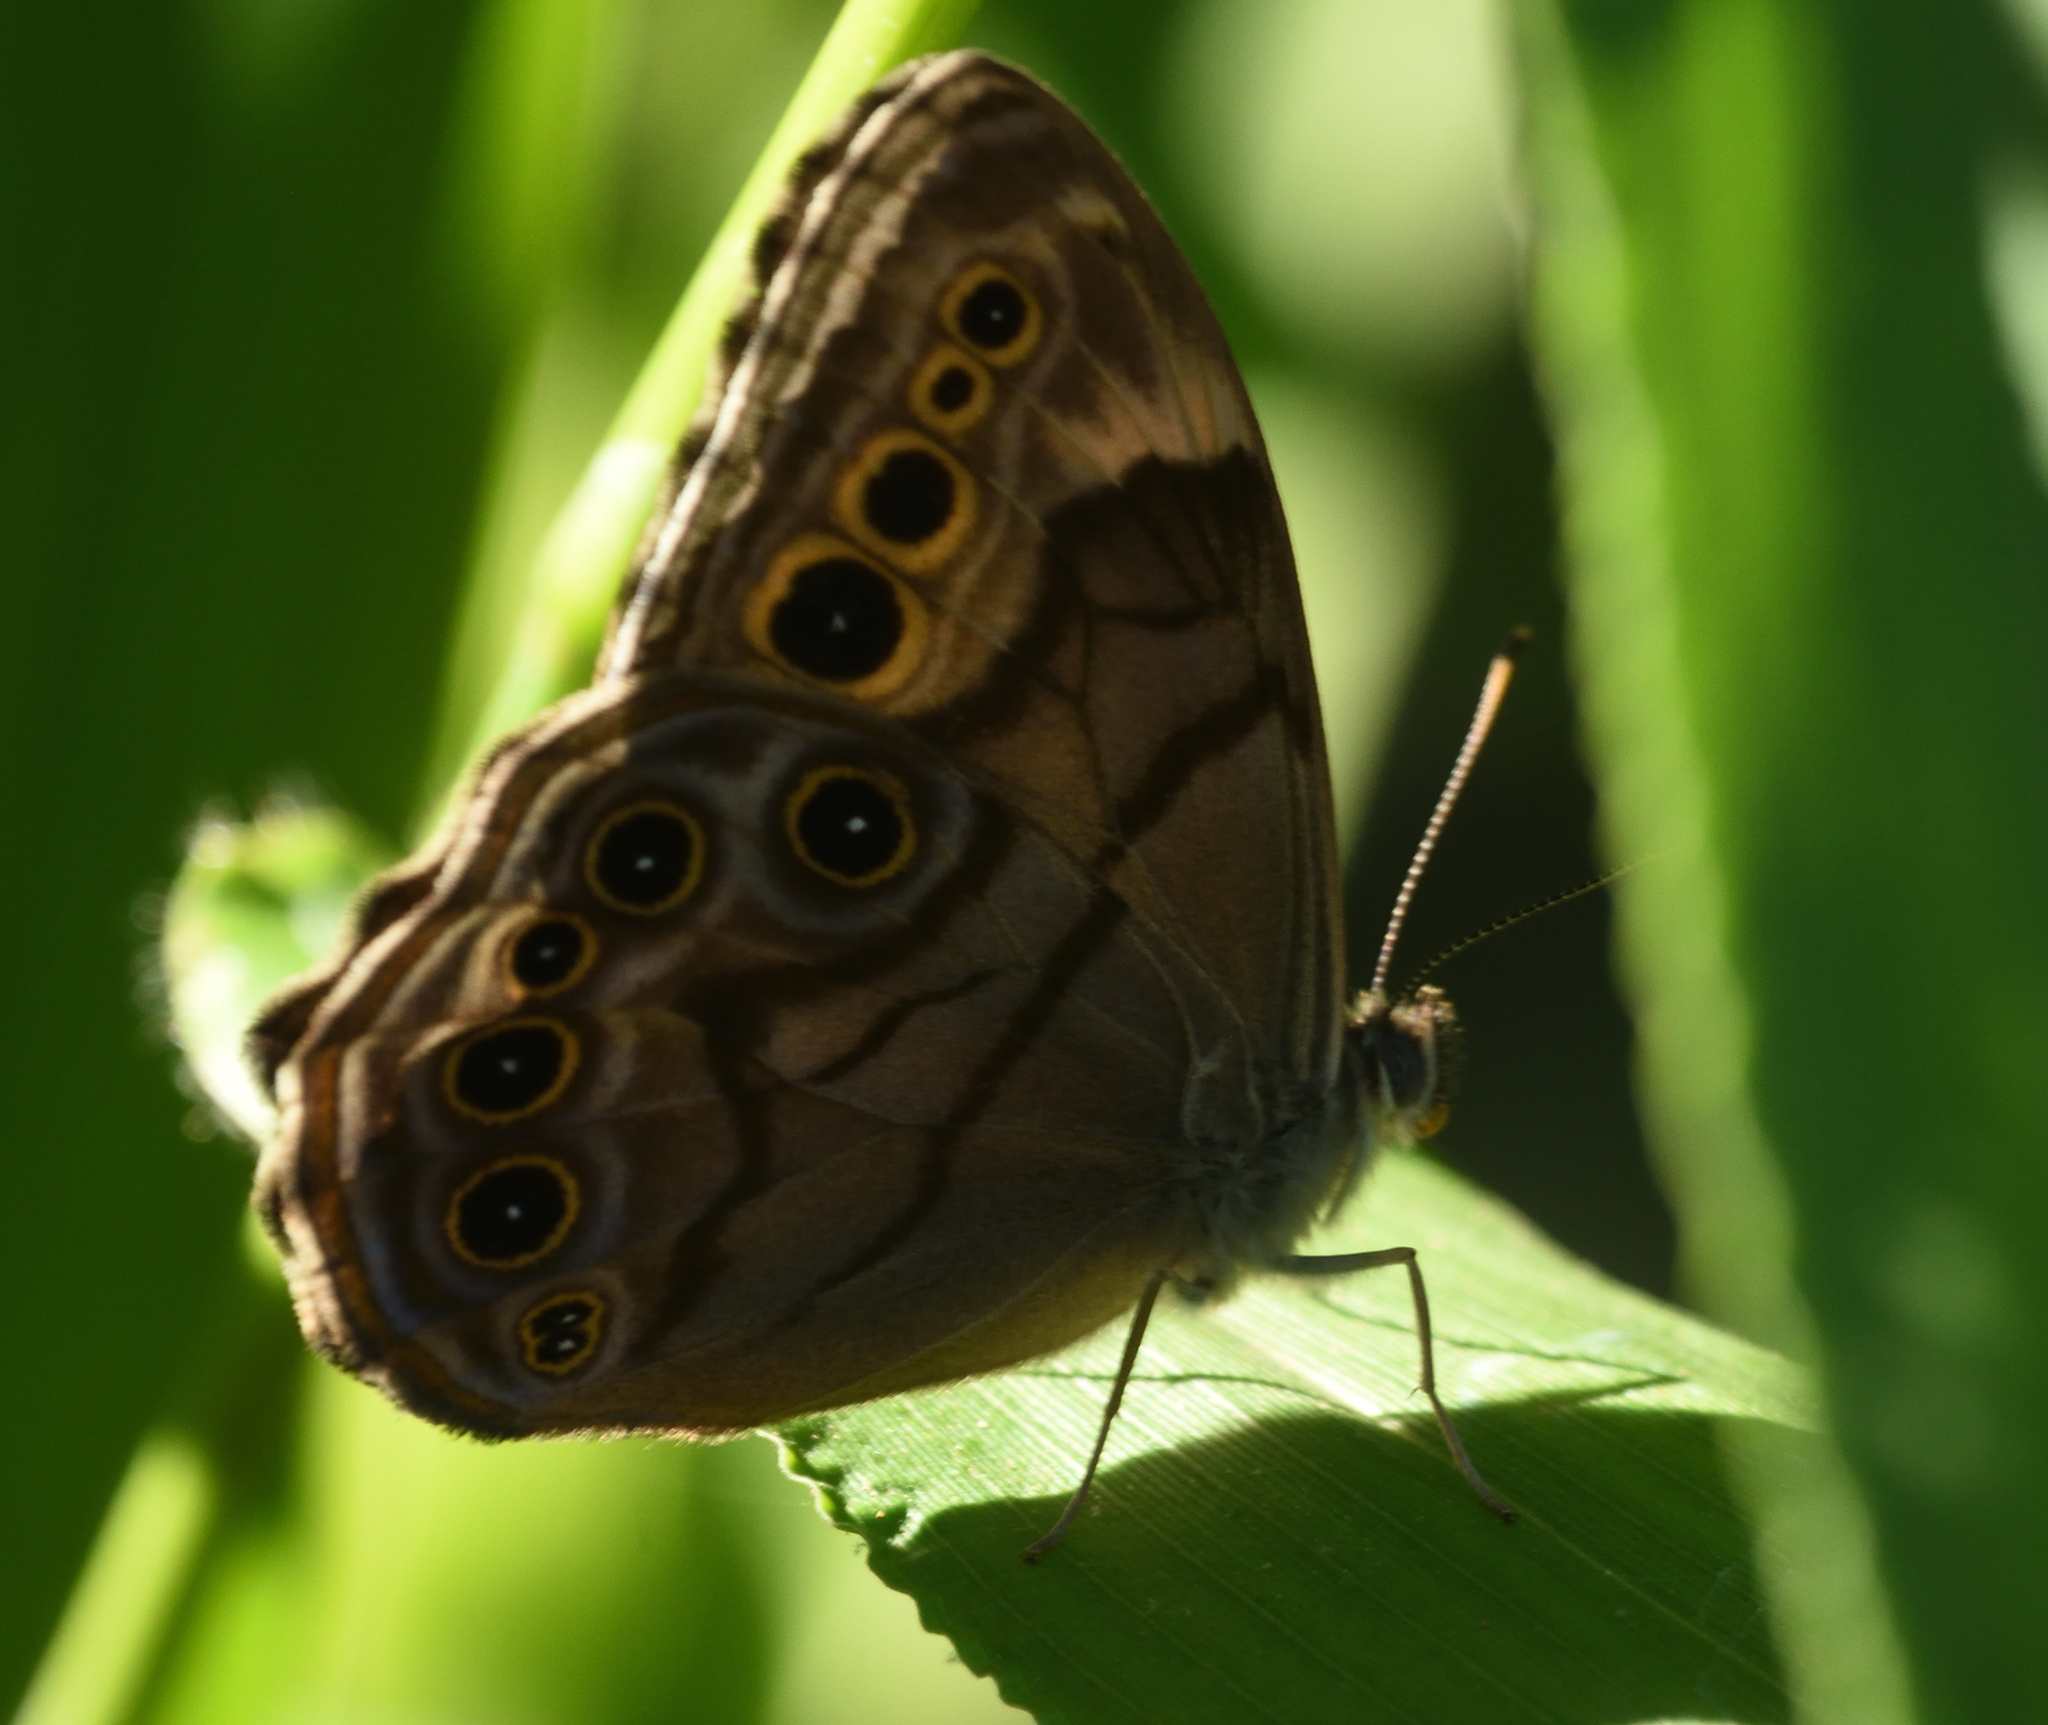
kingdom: Animalia
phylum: Arthropoda
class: Insecta
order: Lepidoptera
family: Nymphalidae
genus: Lethe
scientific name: Lethe anthedon
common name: Northern pearly-eye
